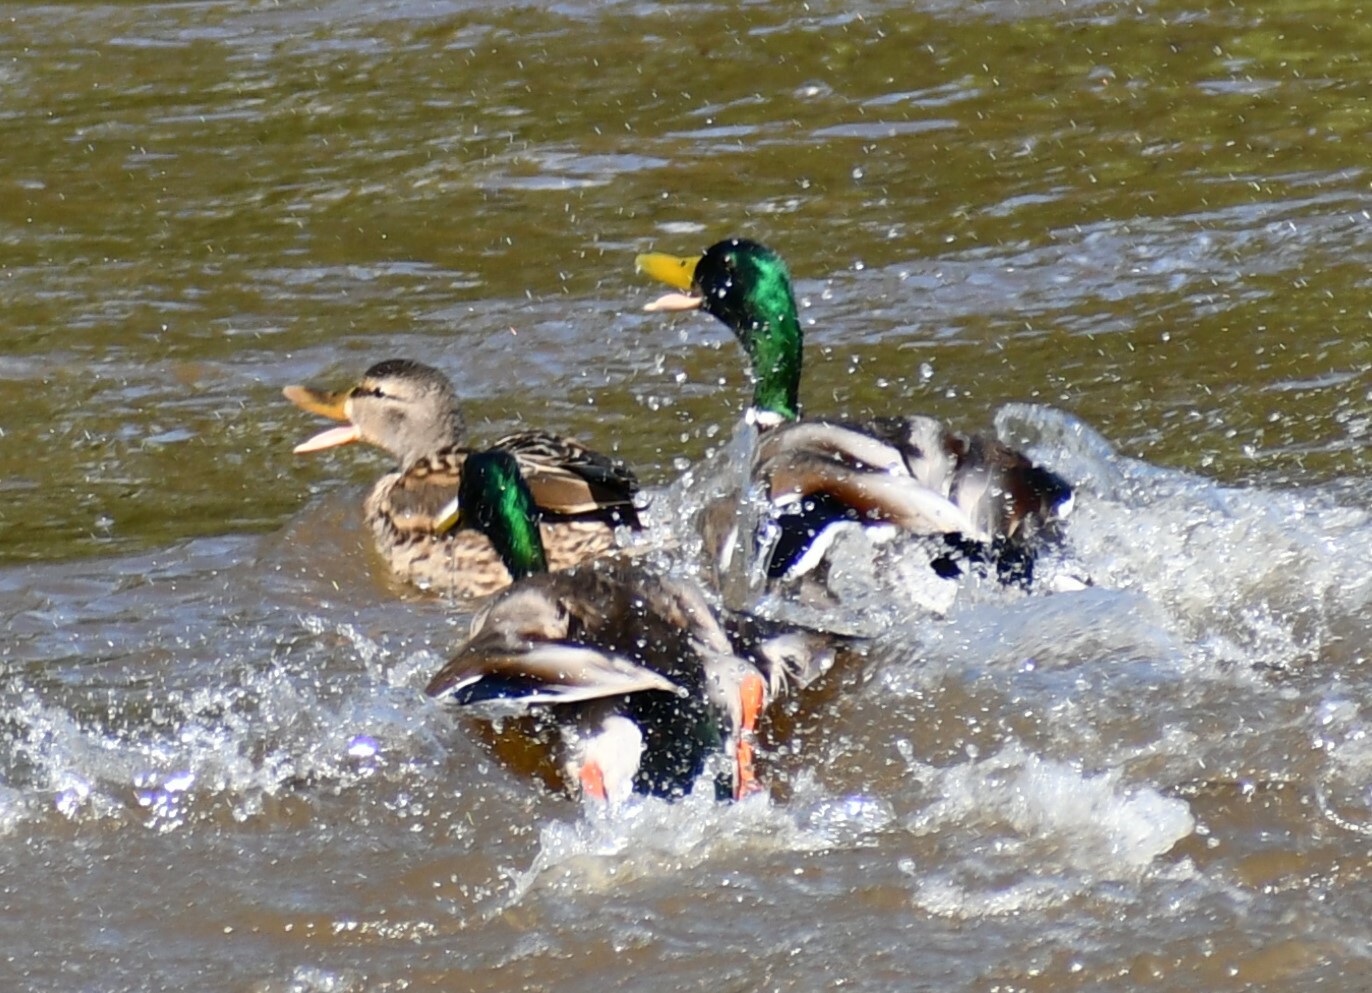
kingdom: Animalia
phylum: Chordata
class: Aves
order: Anseriformes
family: Anatidae
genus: Anas
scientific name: Anas platyrhynchos
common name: Mallard
